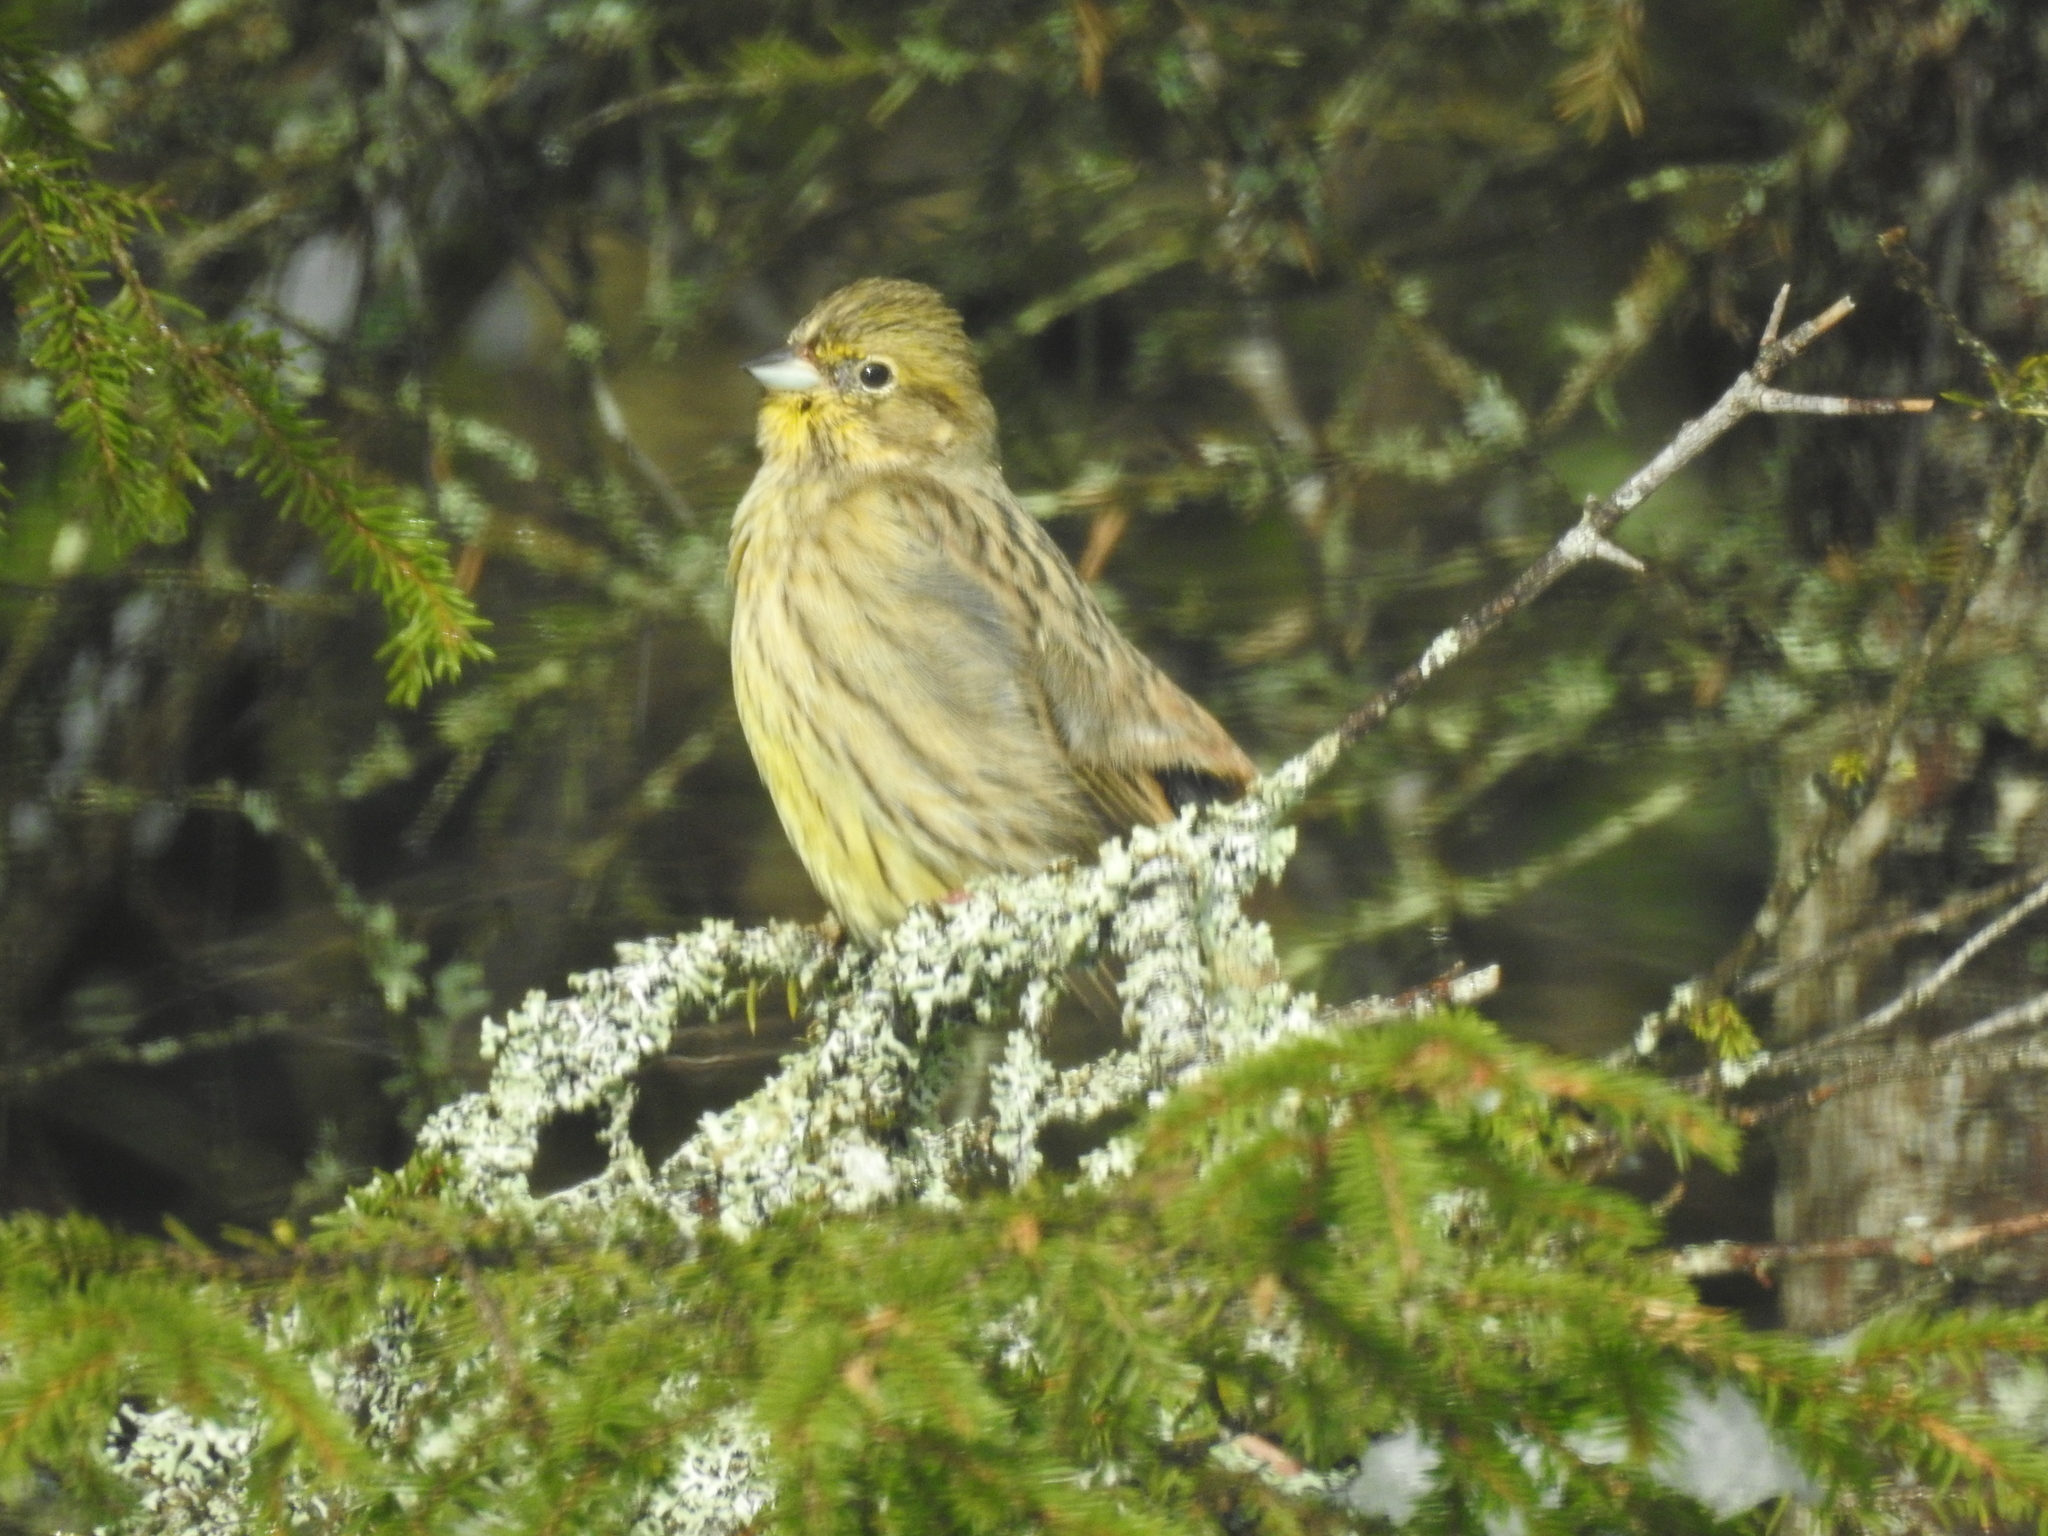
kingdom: Animalia
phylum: Chordata
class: Aves
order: Passeriformes
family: Emberizidae
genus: Emberiza
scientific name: Emberiza citrinella
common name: Yellowhammer
